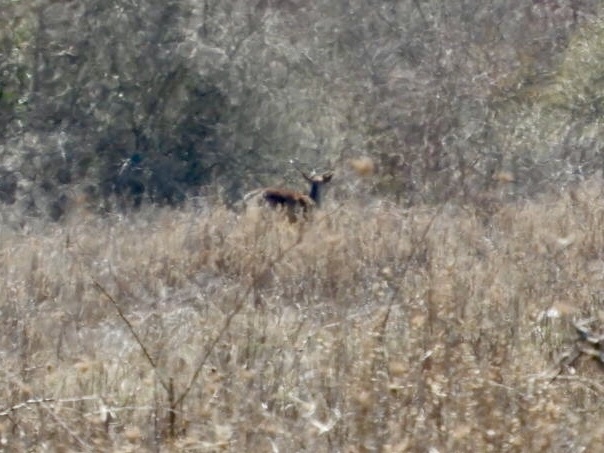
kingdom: Animalia
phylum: Chordata
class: Mammalia
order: Artiodactyla
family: Cervidae
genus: Dama
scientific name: Dama dama
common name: Fallow deer
